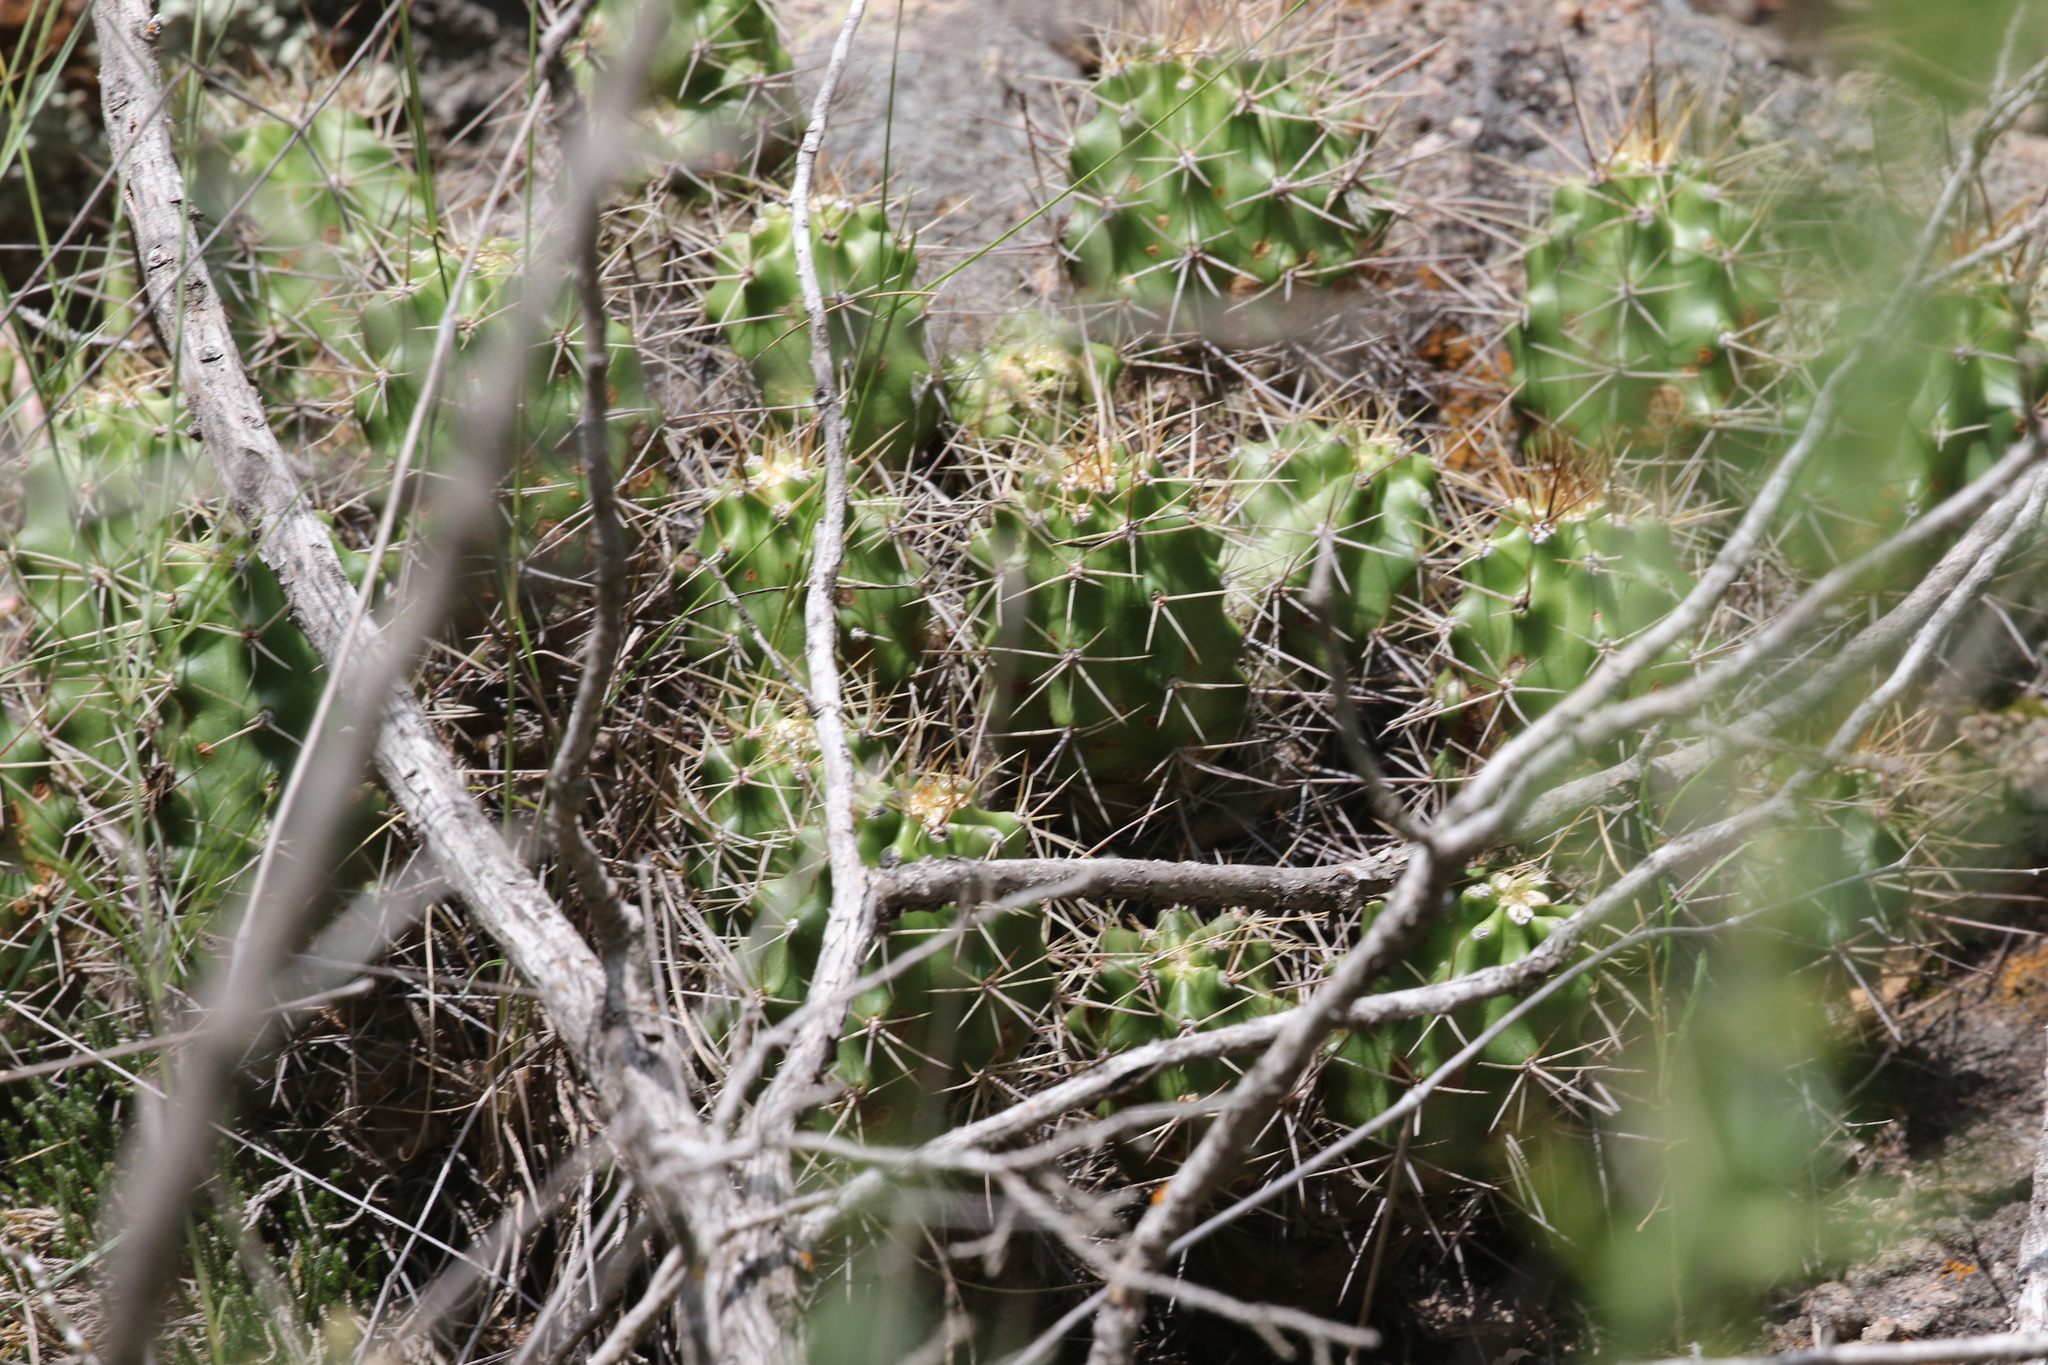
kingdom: Plantae
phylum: Tracheophyta
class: Magnoliopsida
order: Caryophyllales
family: Cactaceae
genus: Echinocereus
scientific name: Echinocereus coccineus
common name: Scarlet hedgehog cactus
